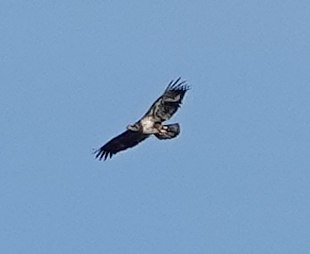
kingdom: Animalia
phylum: Chordata
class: Aves
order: Accipitriformes
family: Accipitridae
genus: Haliaeetus
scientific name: Haliaeetus leucocephalus
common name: Bald eagle
